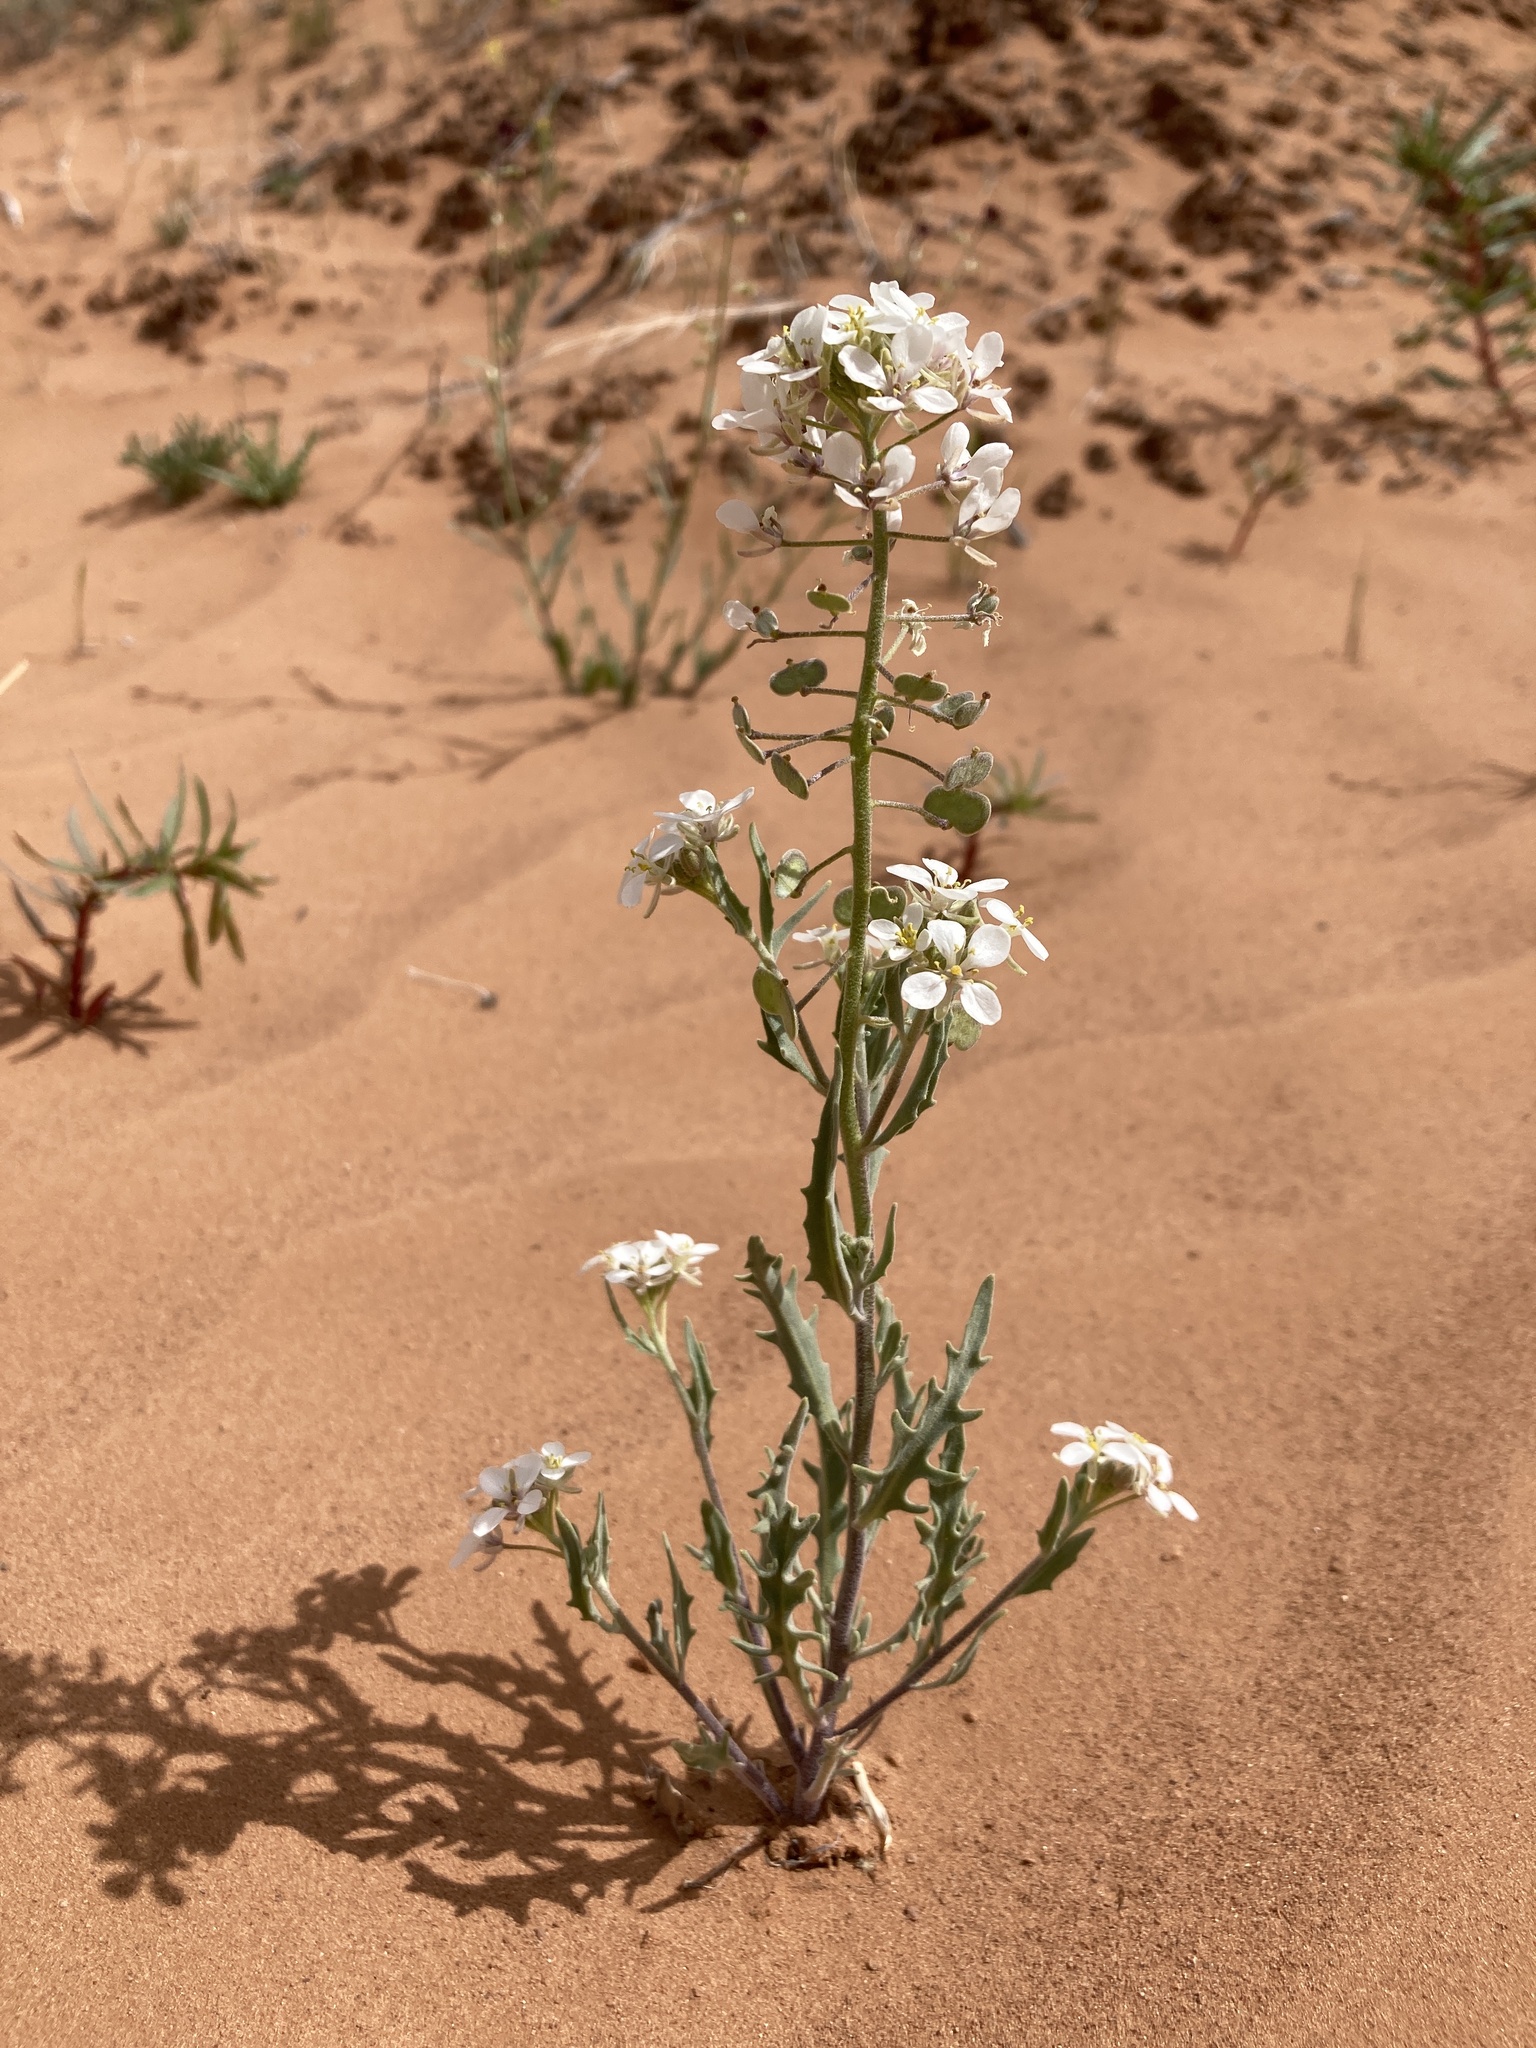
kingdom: Plantae
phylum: Tracheophyta
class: Magnoliopsida
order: Brassicales
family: Brassicaceae
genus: Dimorphocarpa
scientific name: Dimorphocarpa wislizenii
